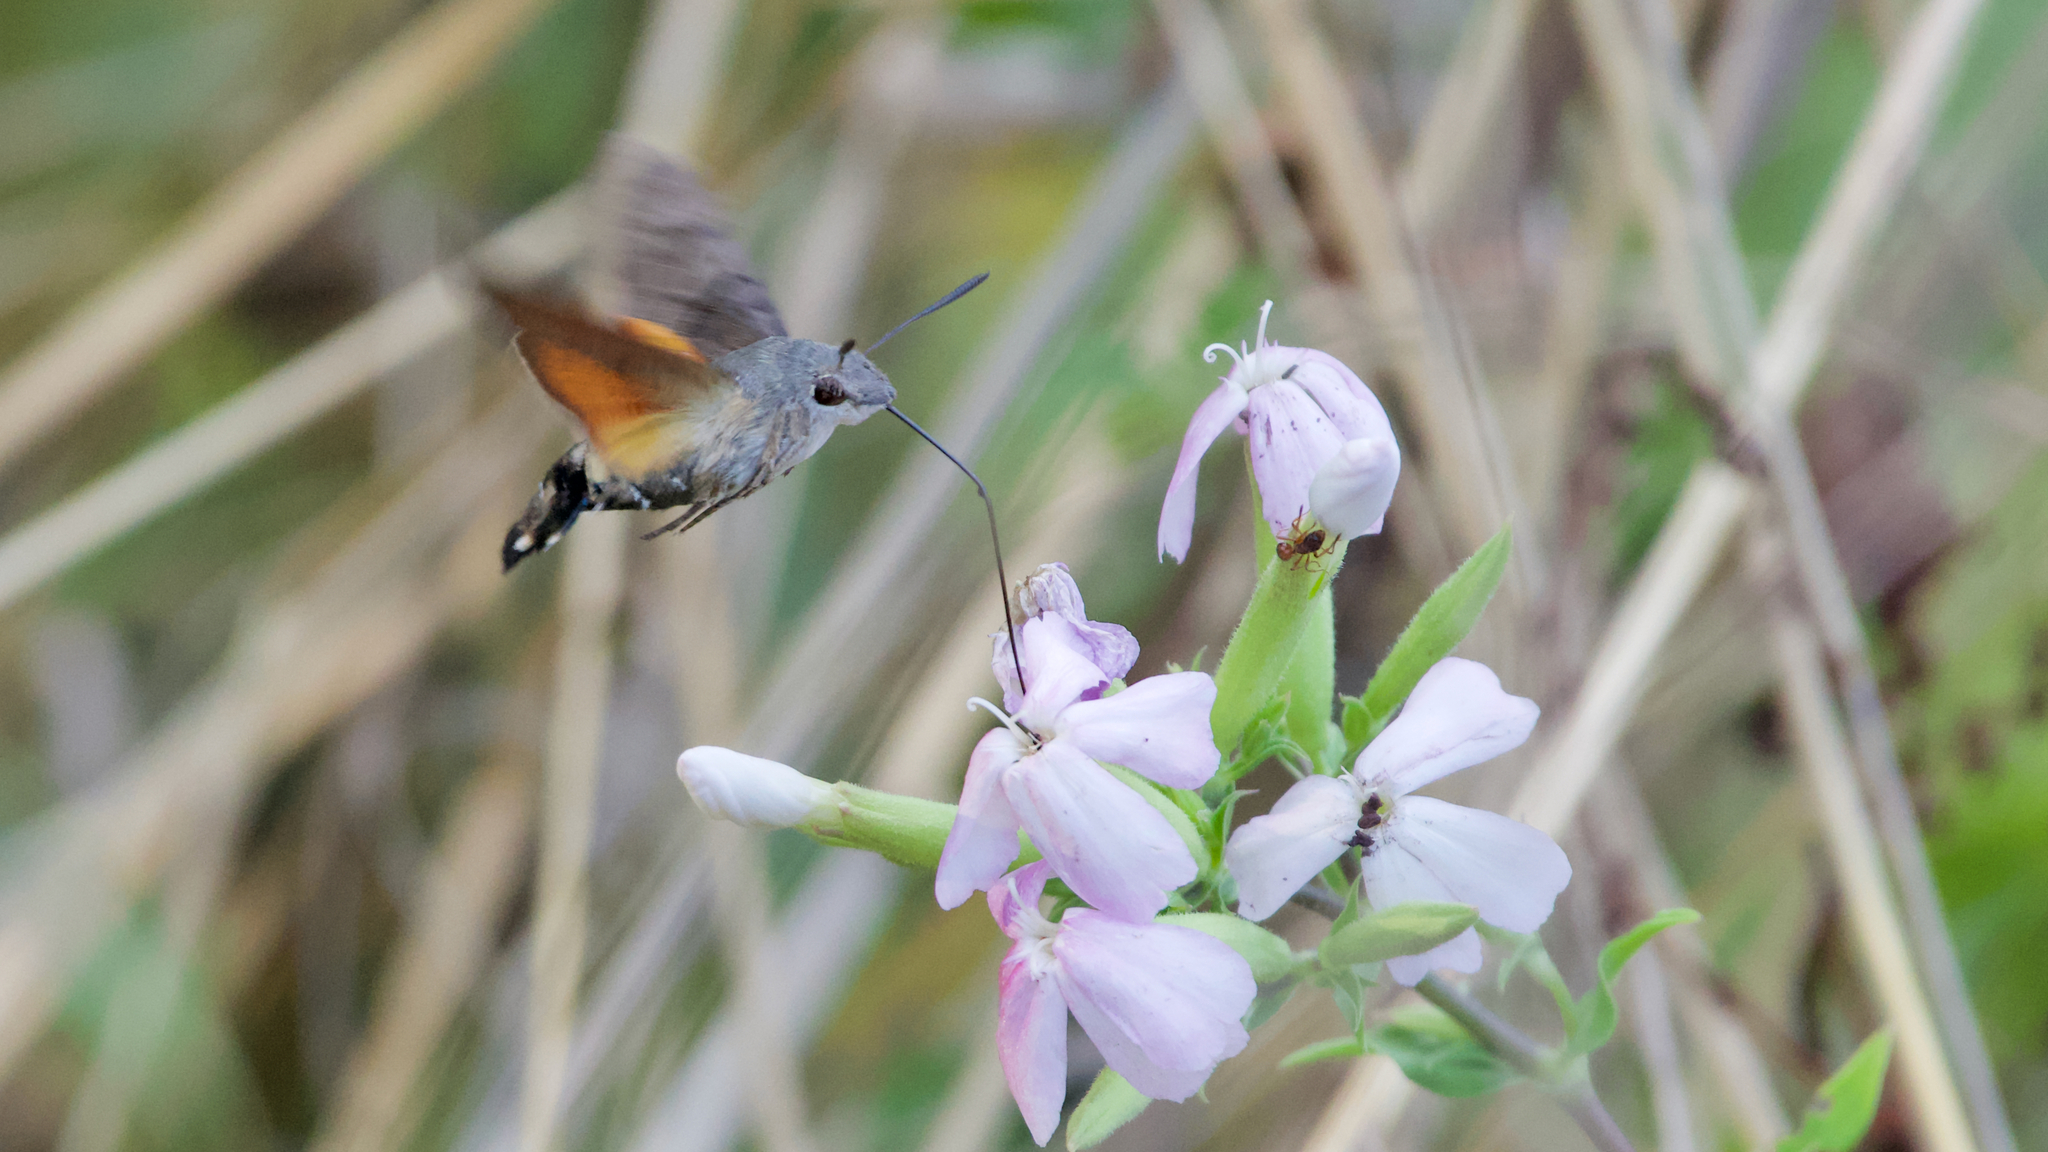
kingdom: Animalia
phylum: Arthropoda
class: Insecta
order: Lepidoptera
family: Sphingidae
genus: Macroglossum
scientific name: Macroglossum stellatarum
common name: Humming-bird hawk-moth
